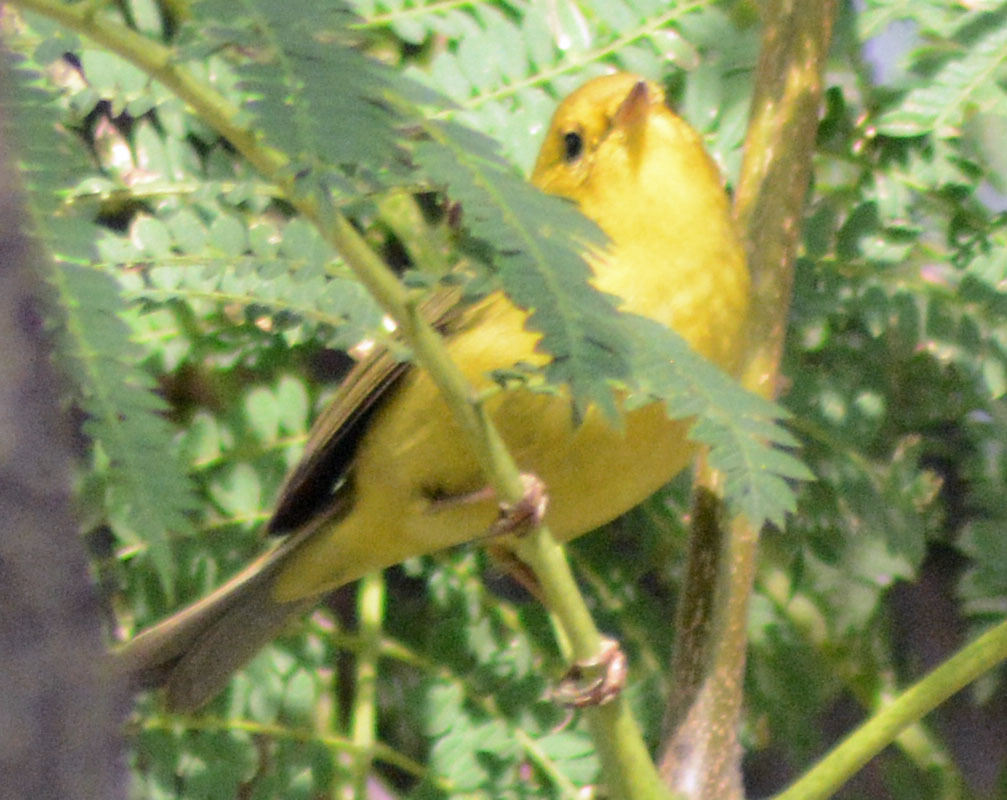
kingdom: Animalia
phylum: Chordata
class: Aves
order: Passeriformes
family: Parulidae
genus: Cardellina
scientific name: Cardellina pusilla
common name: Wilson's warbler
